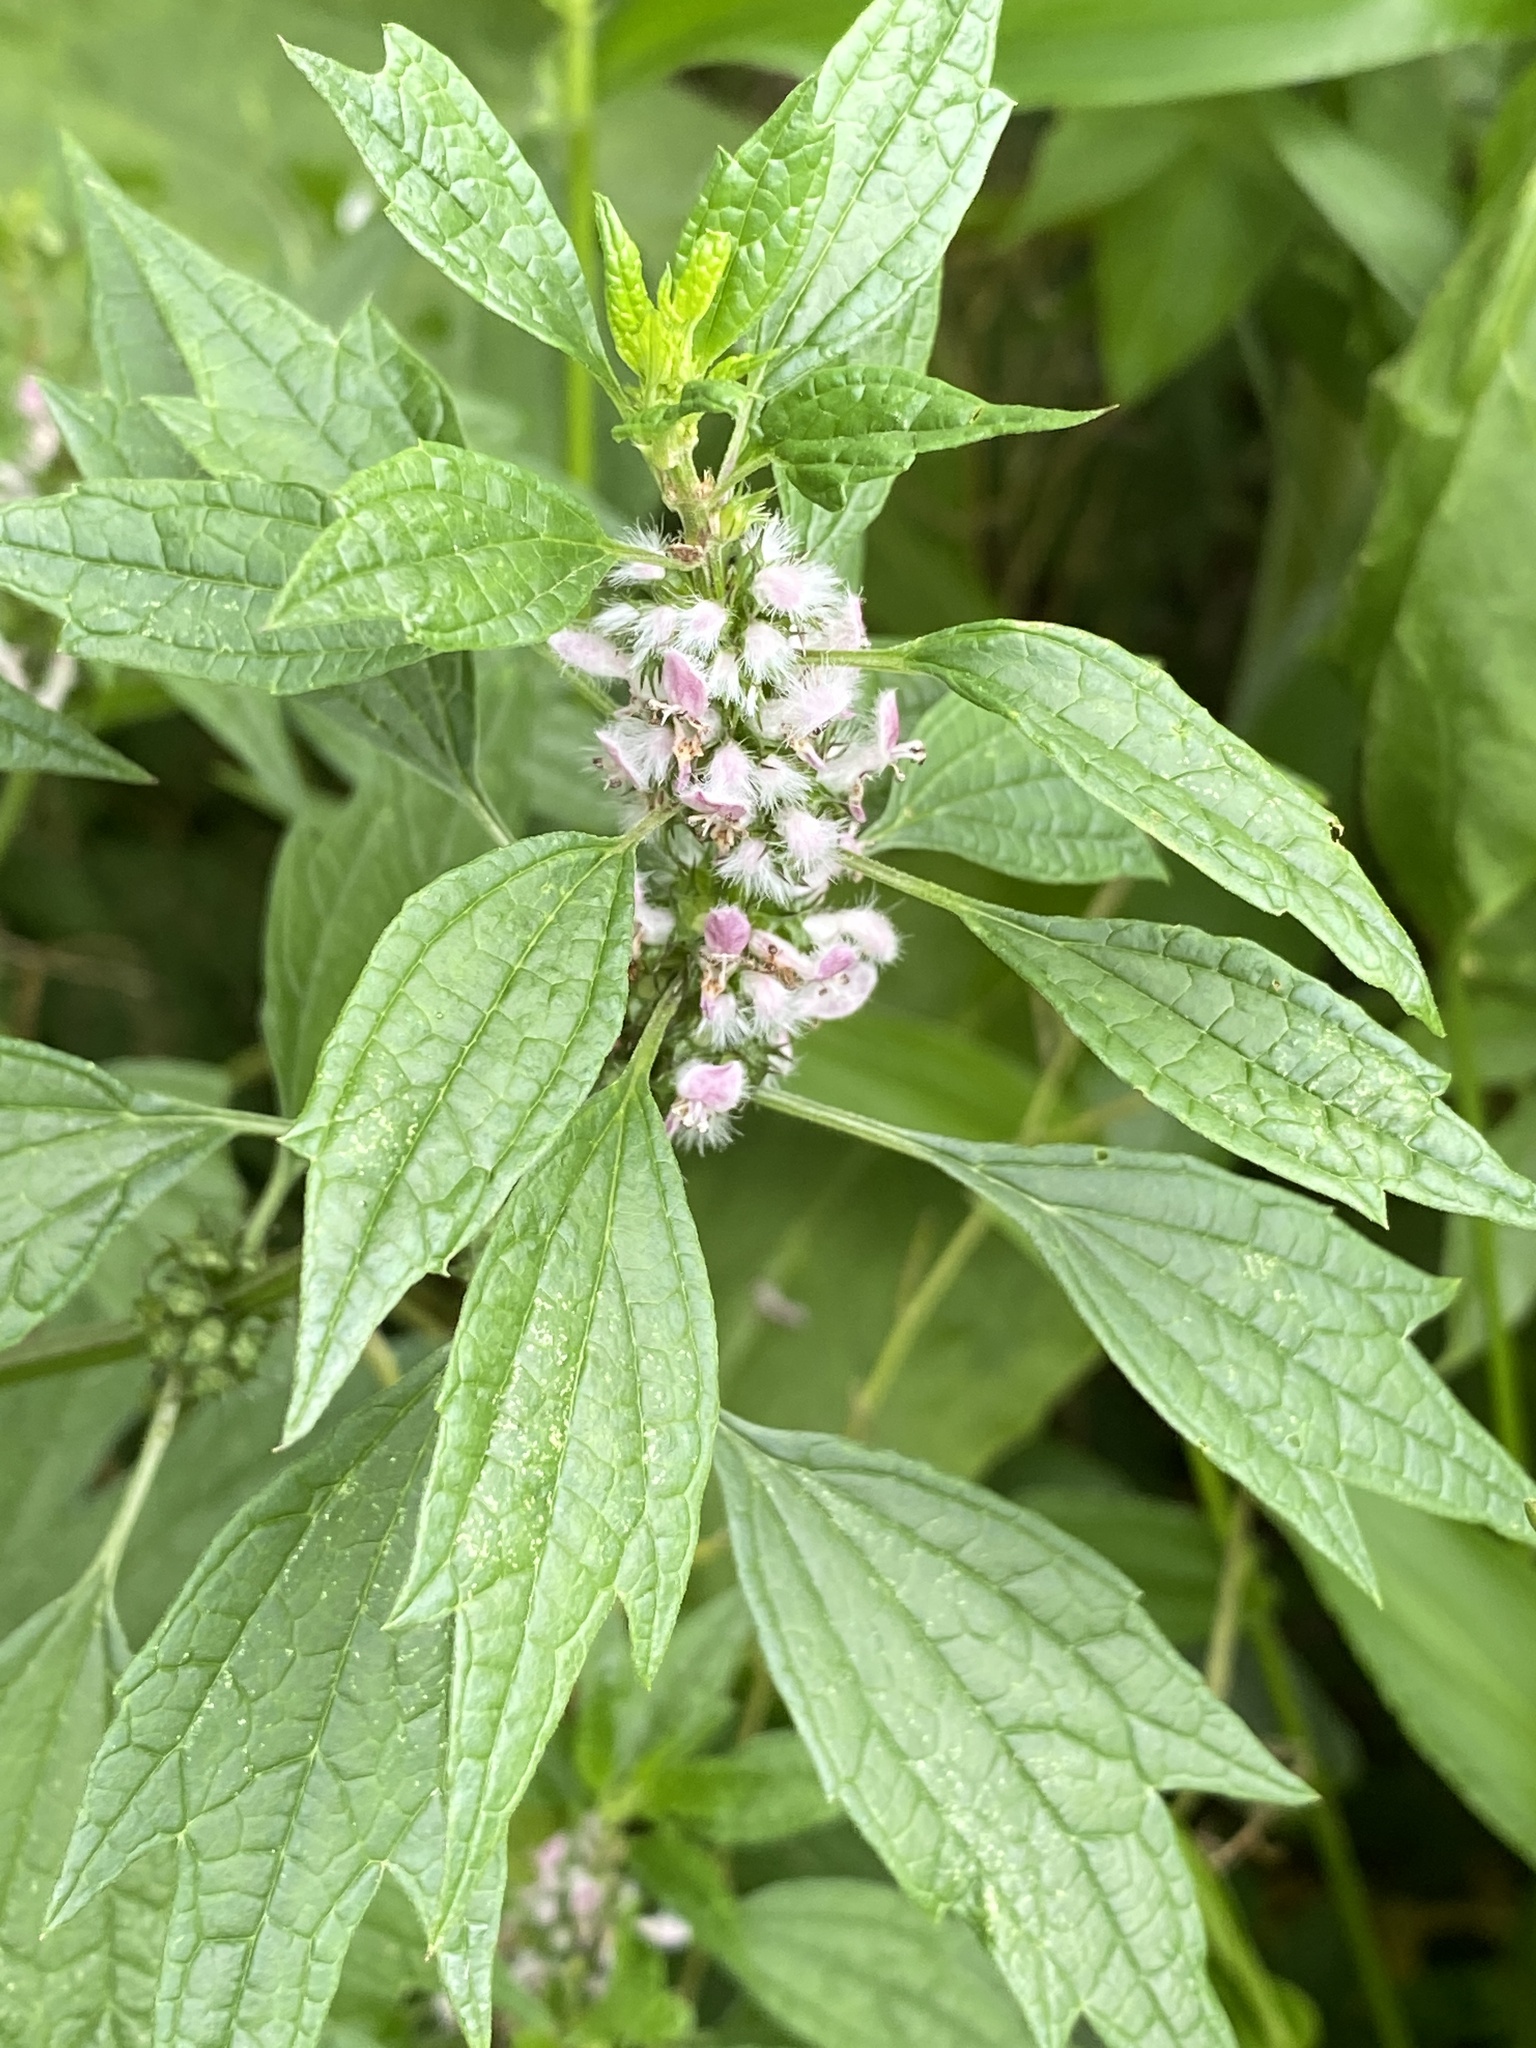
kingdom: Plantae
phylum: Tracheophyta
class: Magnoliopsida
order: Lamiales
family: Lamiaceae
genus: Leonurus
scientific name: Leonurus cardiaca
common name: Motherwort
